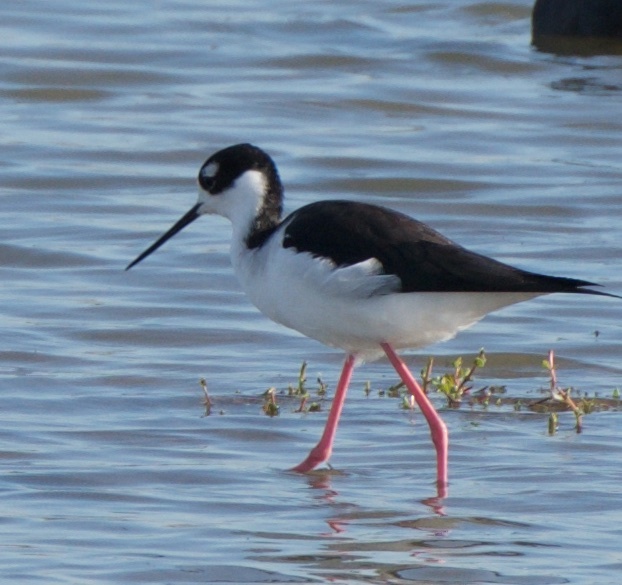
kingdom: Animalia
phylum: Chordata
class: Aves
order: Charadriiformes
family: Recurvirostridae
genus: Himantopus
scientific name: Himantopus mexicanus
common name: Black-necked stilt
